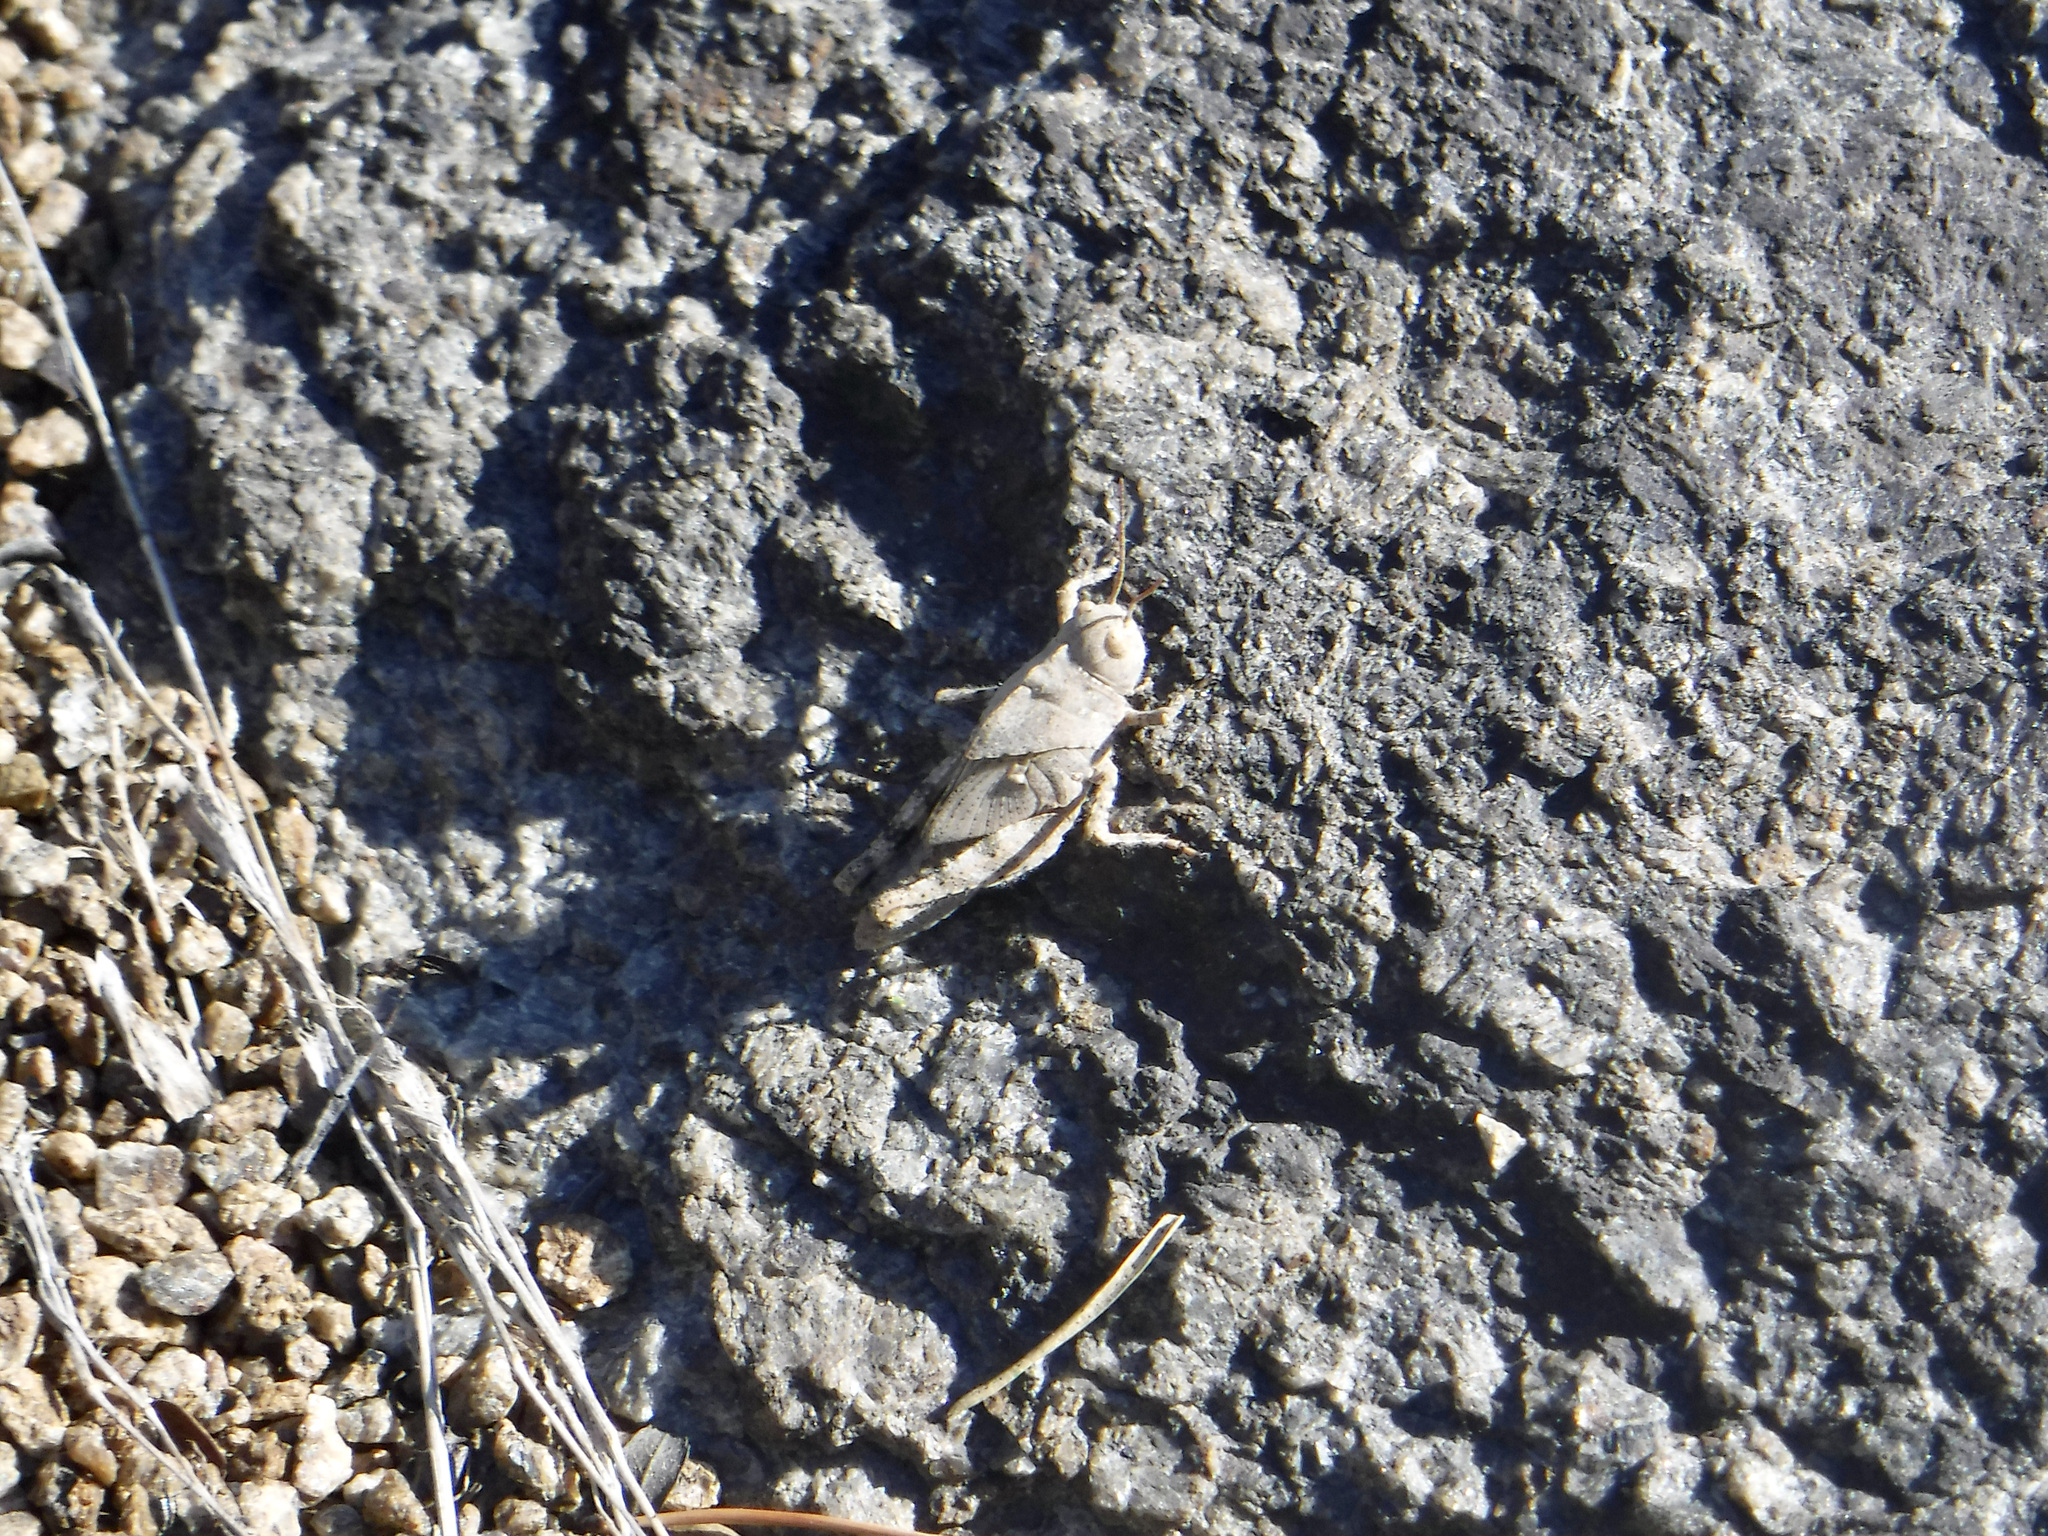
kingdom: Animalia
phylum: Arthropoda
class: Insecta
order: Orthoptera
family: Acrididae
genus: Dissosteira
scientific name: Dissosteira carolina
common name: Carolina grasshopper
